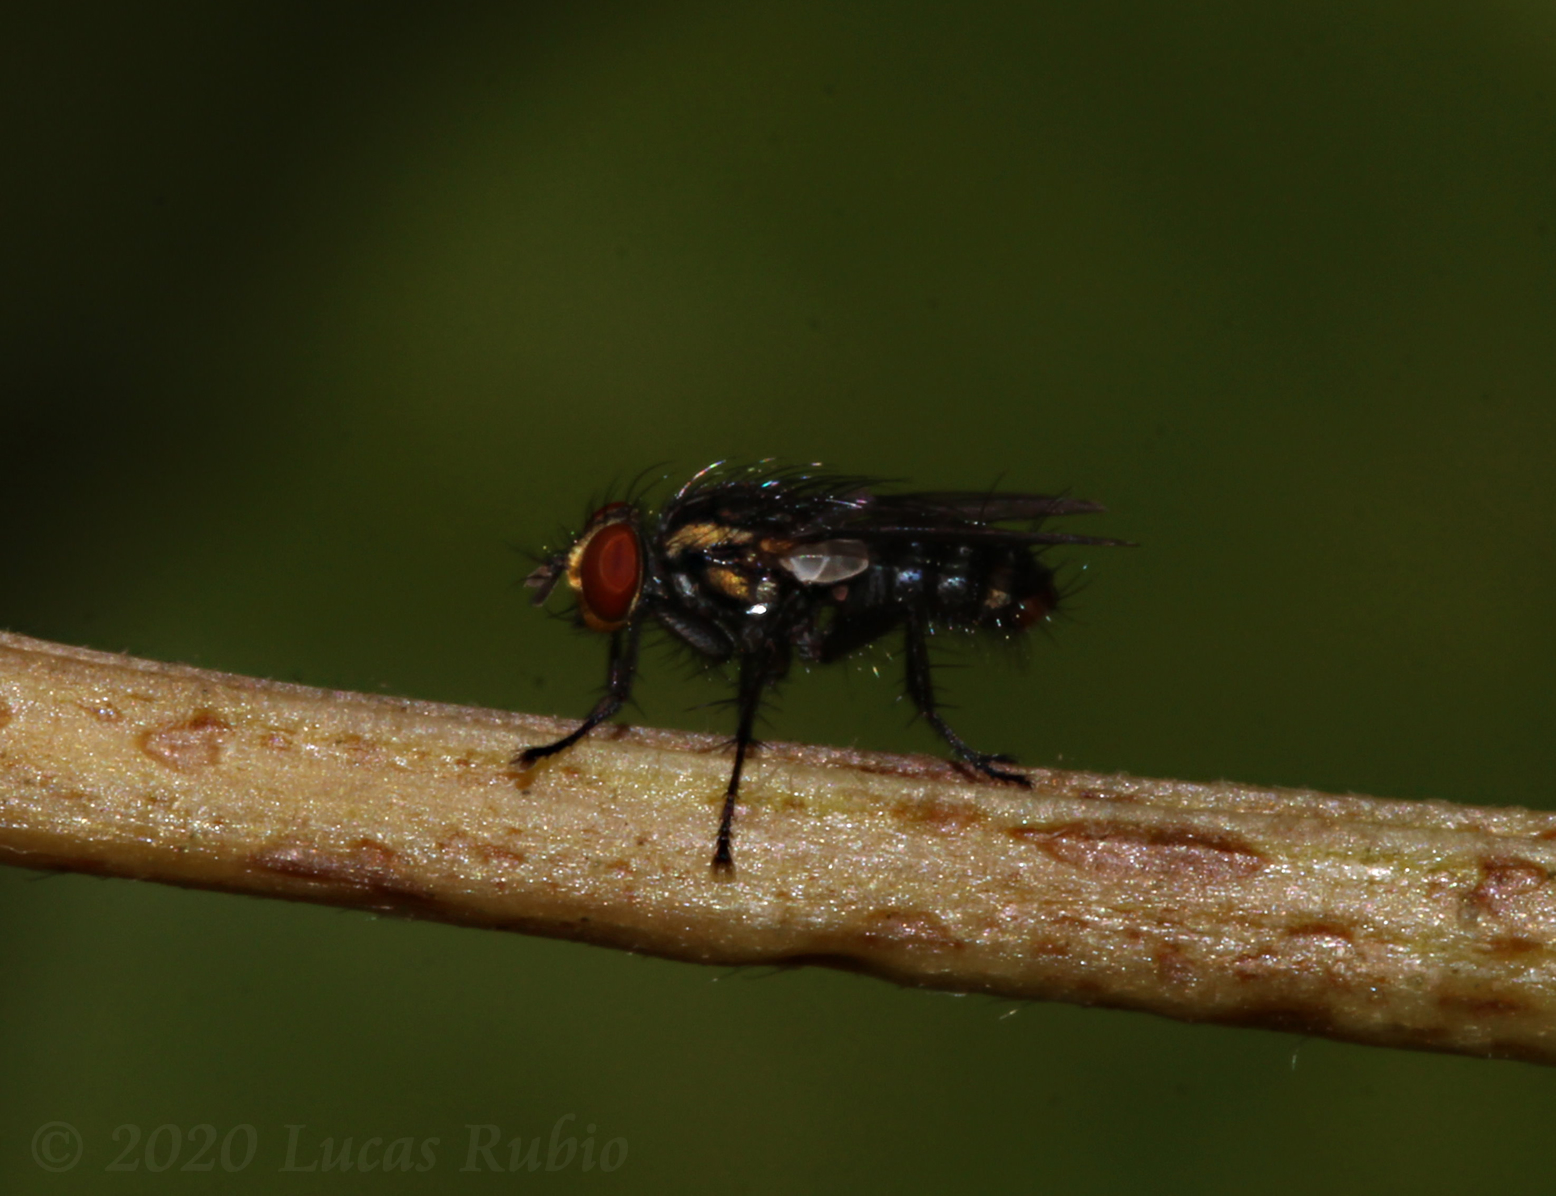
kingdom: Animalia
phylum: Arthropoda
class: Insecta
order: Diptera
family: Sarcophagidae
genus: Oxysarcodexia
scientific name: Oxysarcodexia culmiforceps
